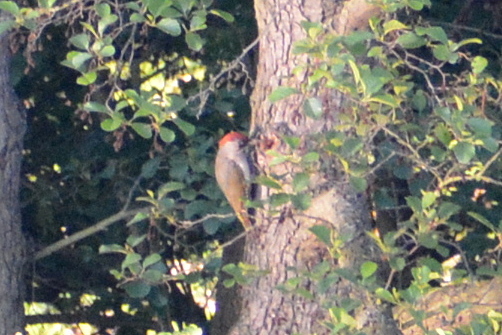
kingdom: Animalia
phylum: Chordata
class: Aves
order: Piciformes
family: Picidae
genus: Picus
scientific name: Picus viridis
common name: European green woodpecker
